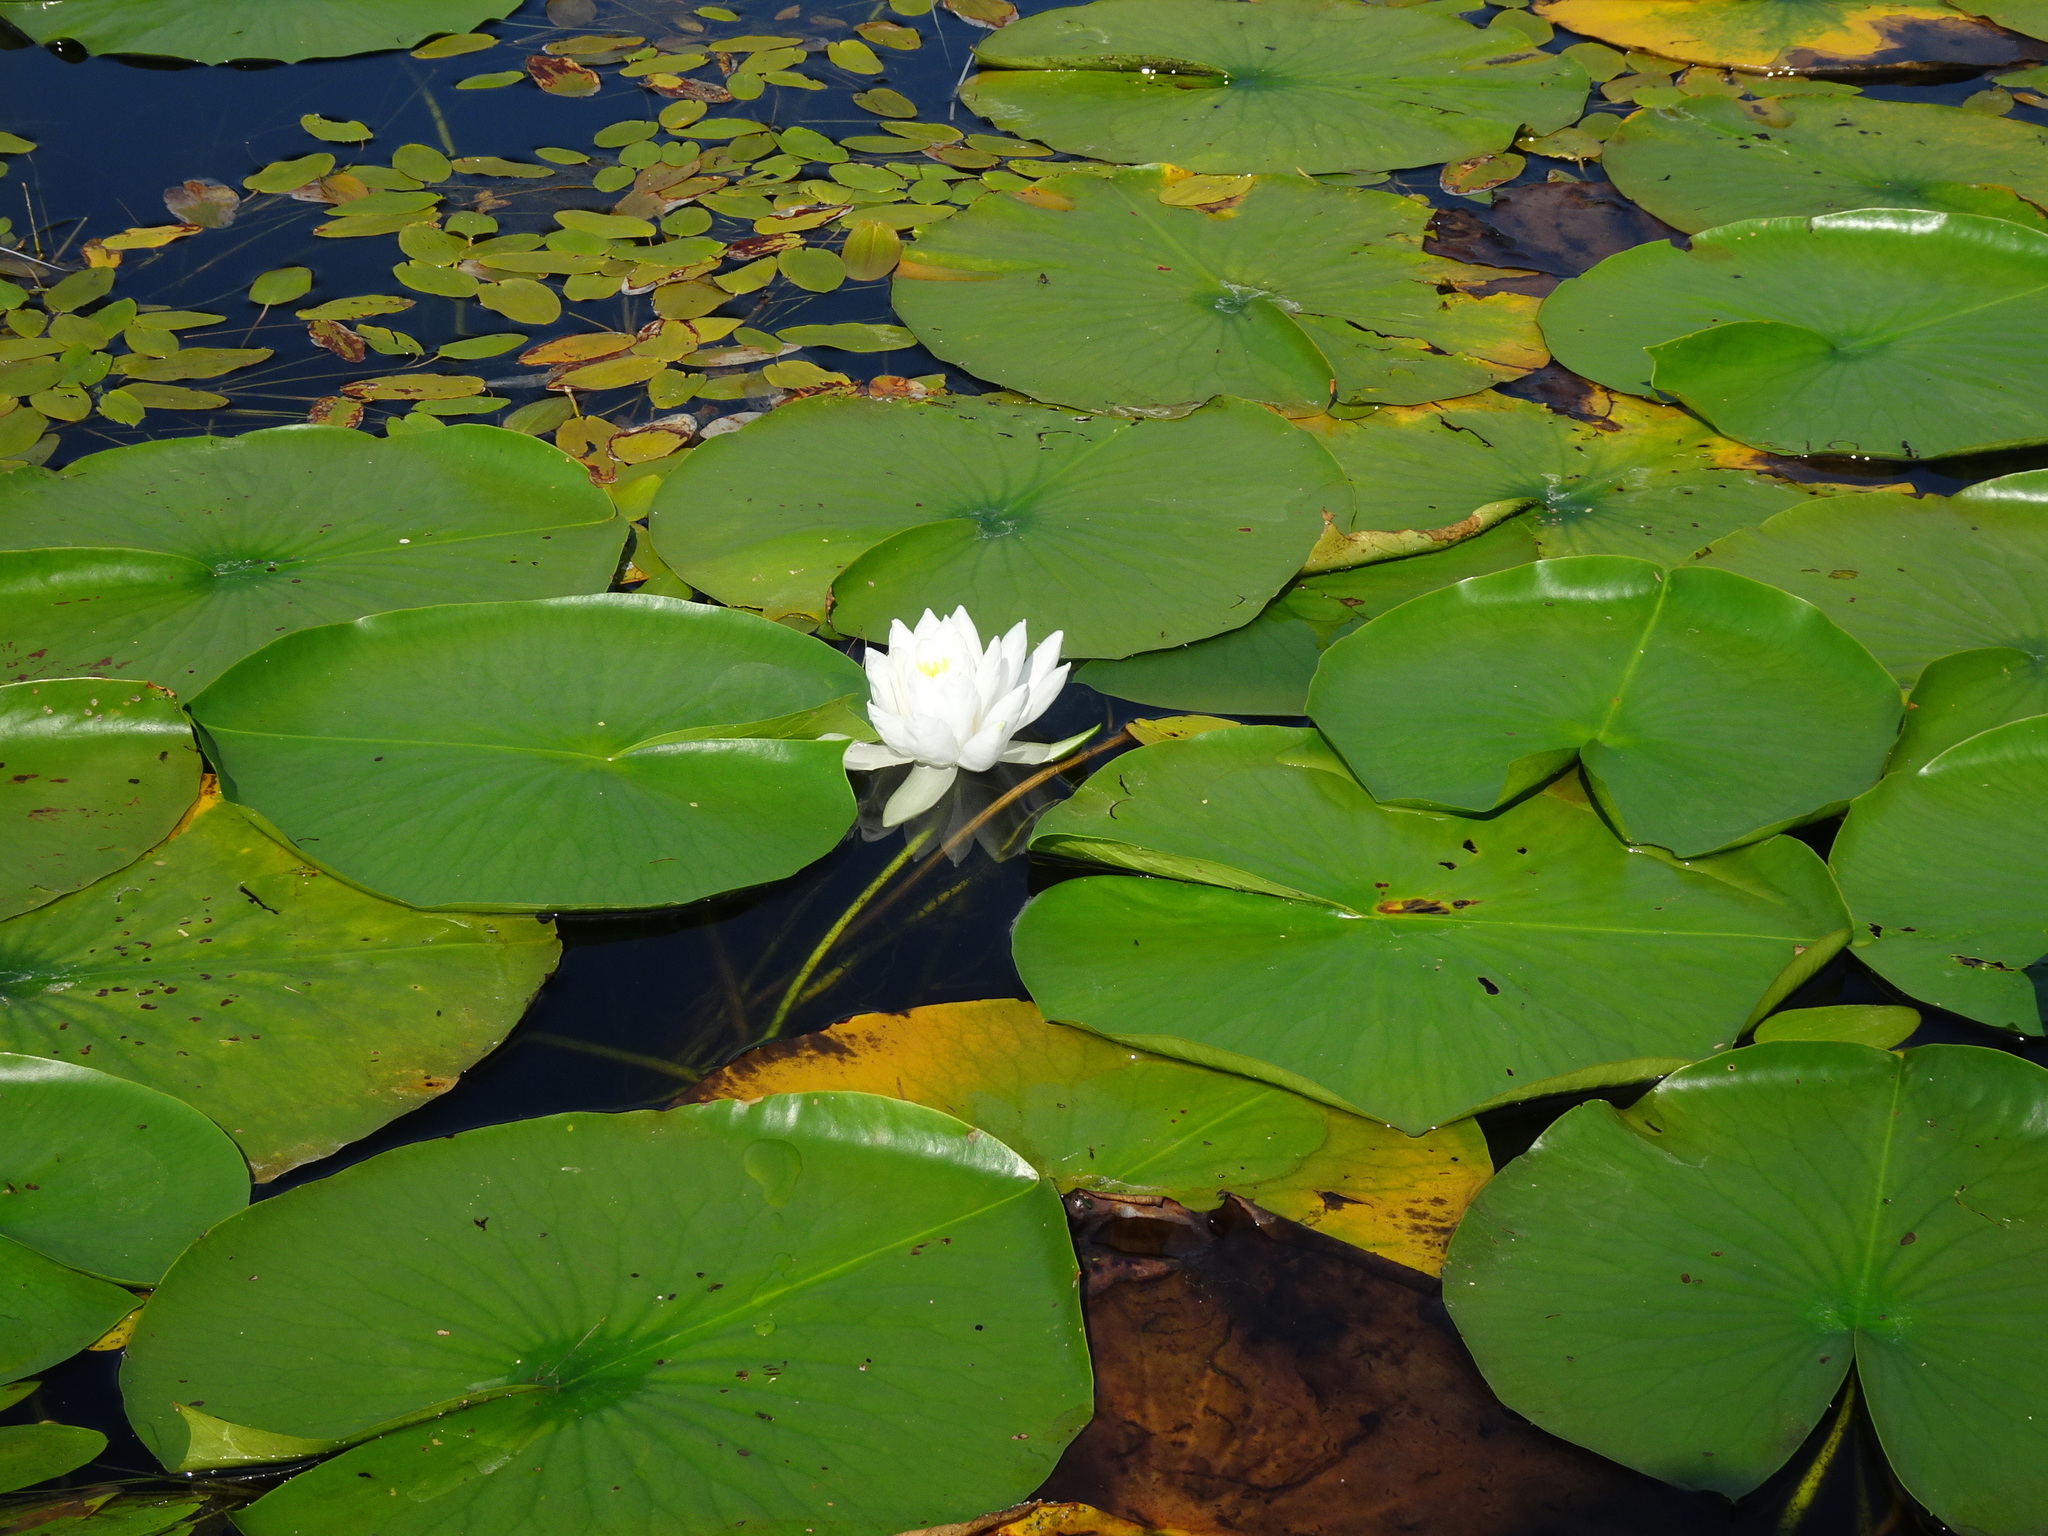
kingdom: Plantae
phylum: Tracheophyta
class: Magnoliopsida
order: Nymphaeales
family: Nymphaeaceae
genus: Nymphaea
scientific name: Nymphaea odorata
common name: Fragrant water-lily
